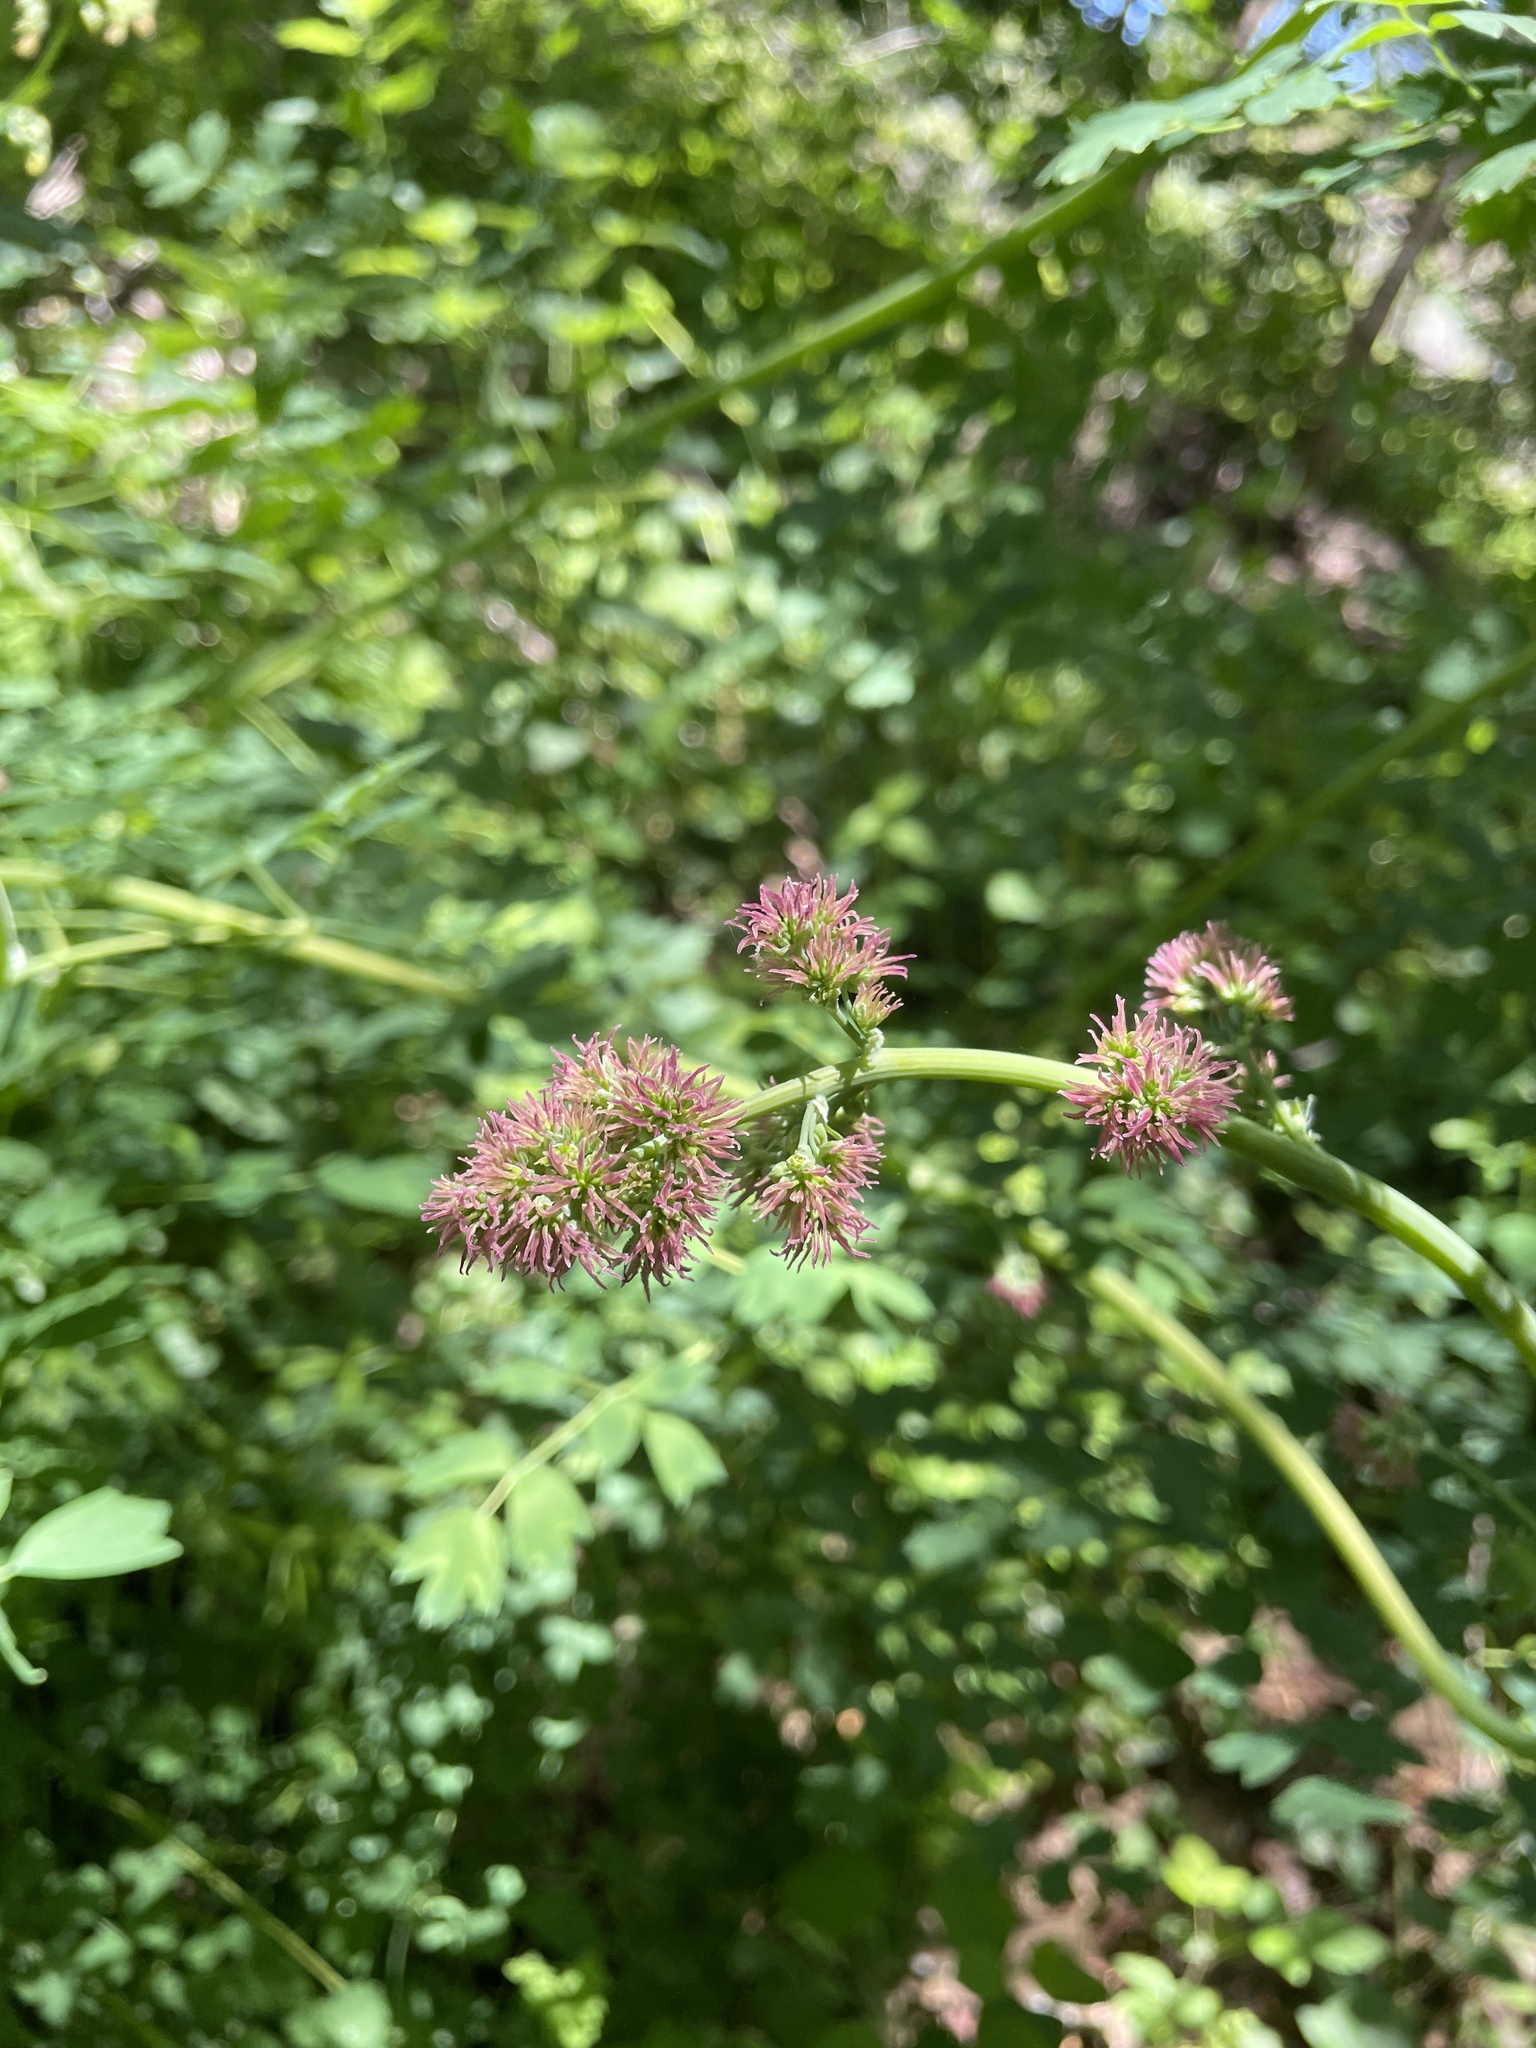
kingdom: Plantae
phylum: Tracheophyta
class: Magnoliopsida
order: Ranunculales
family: Ranunculaceae
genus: Thalictrum
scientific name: Thalictrum fendleri
